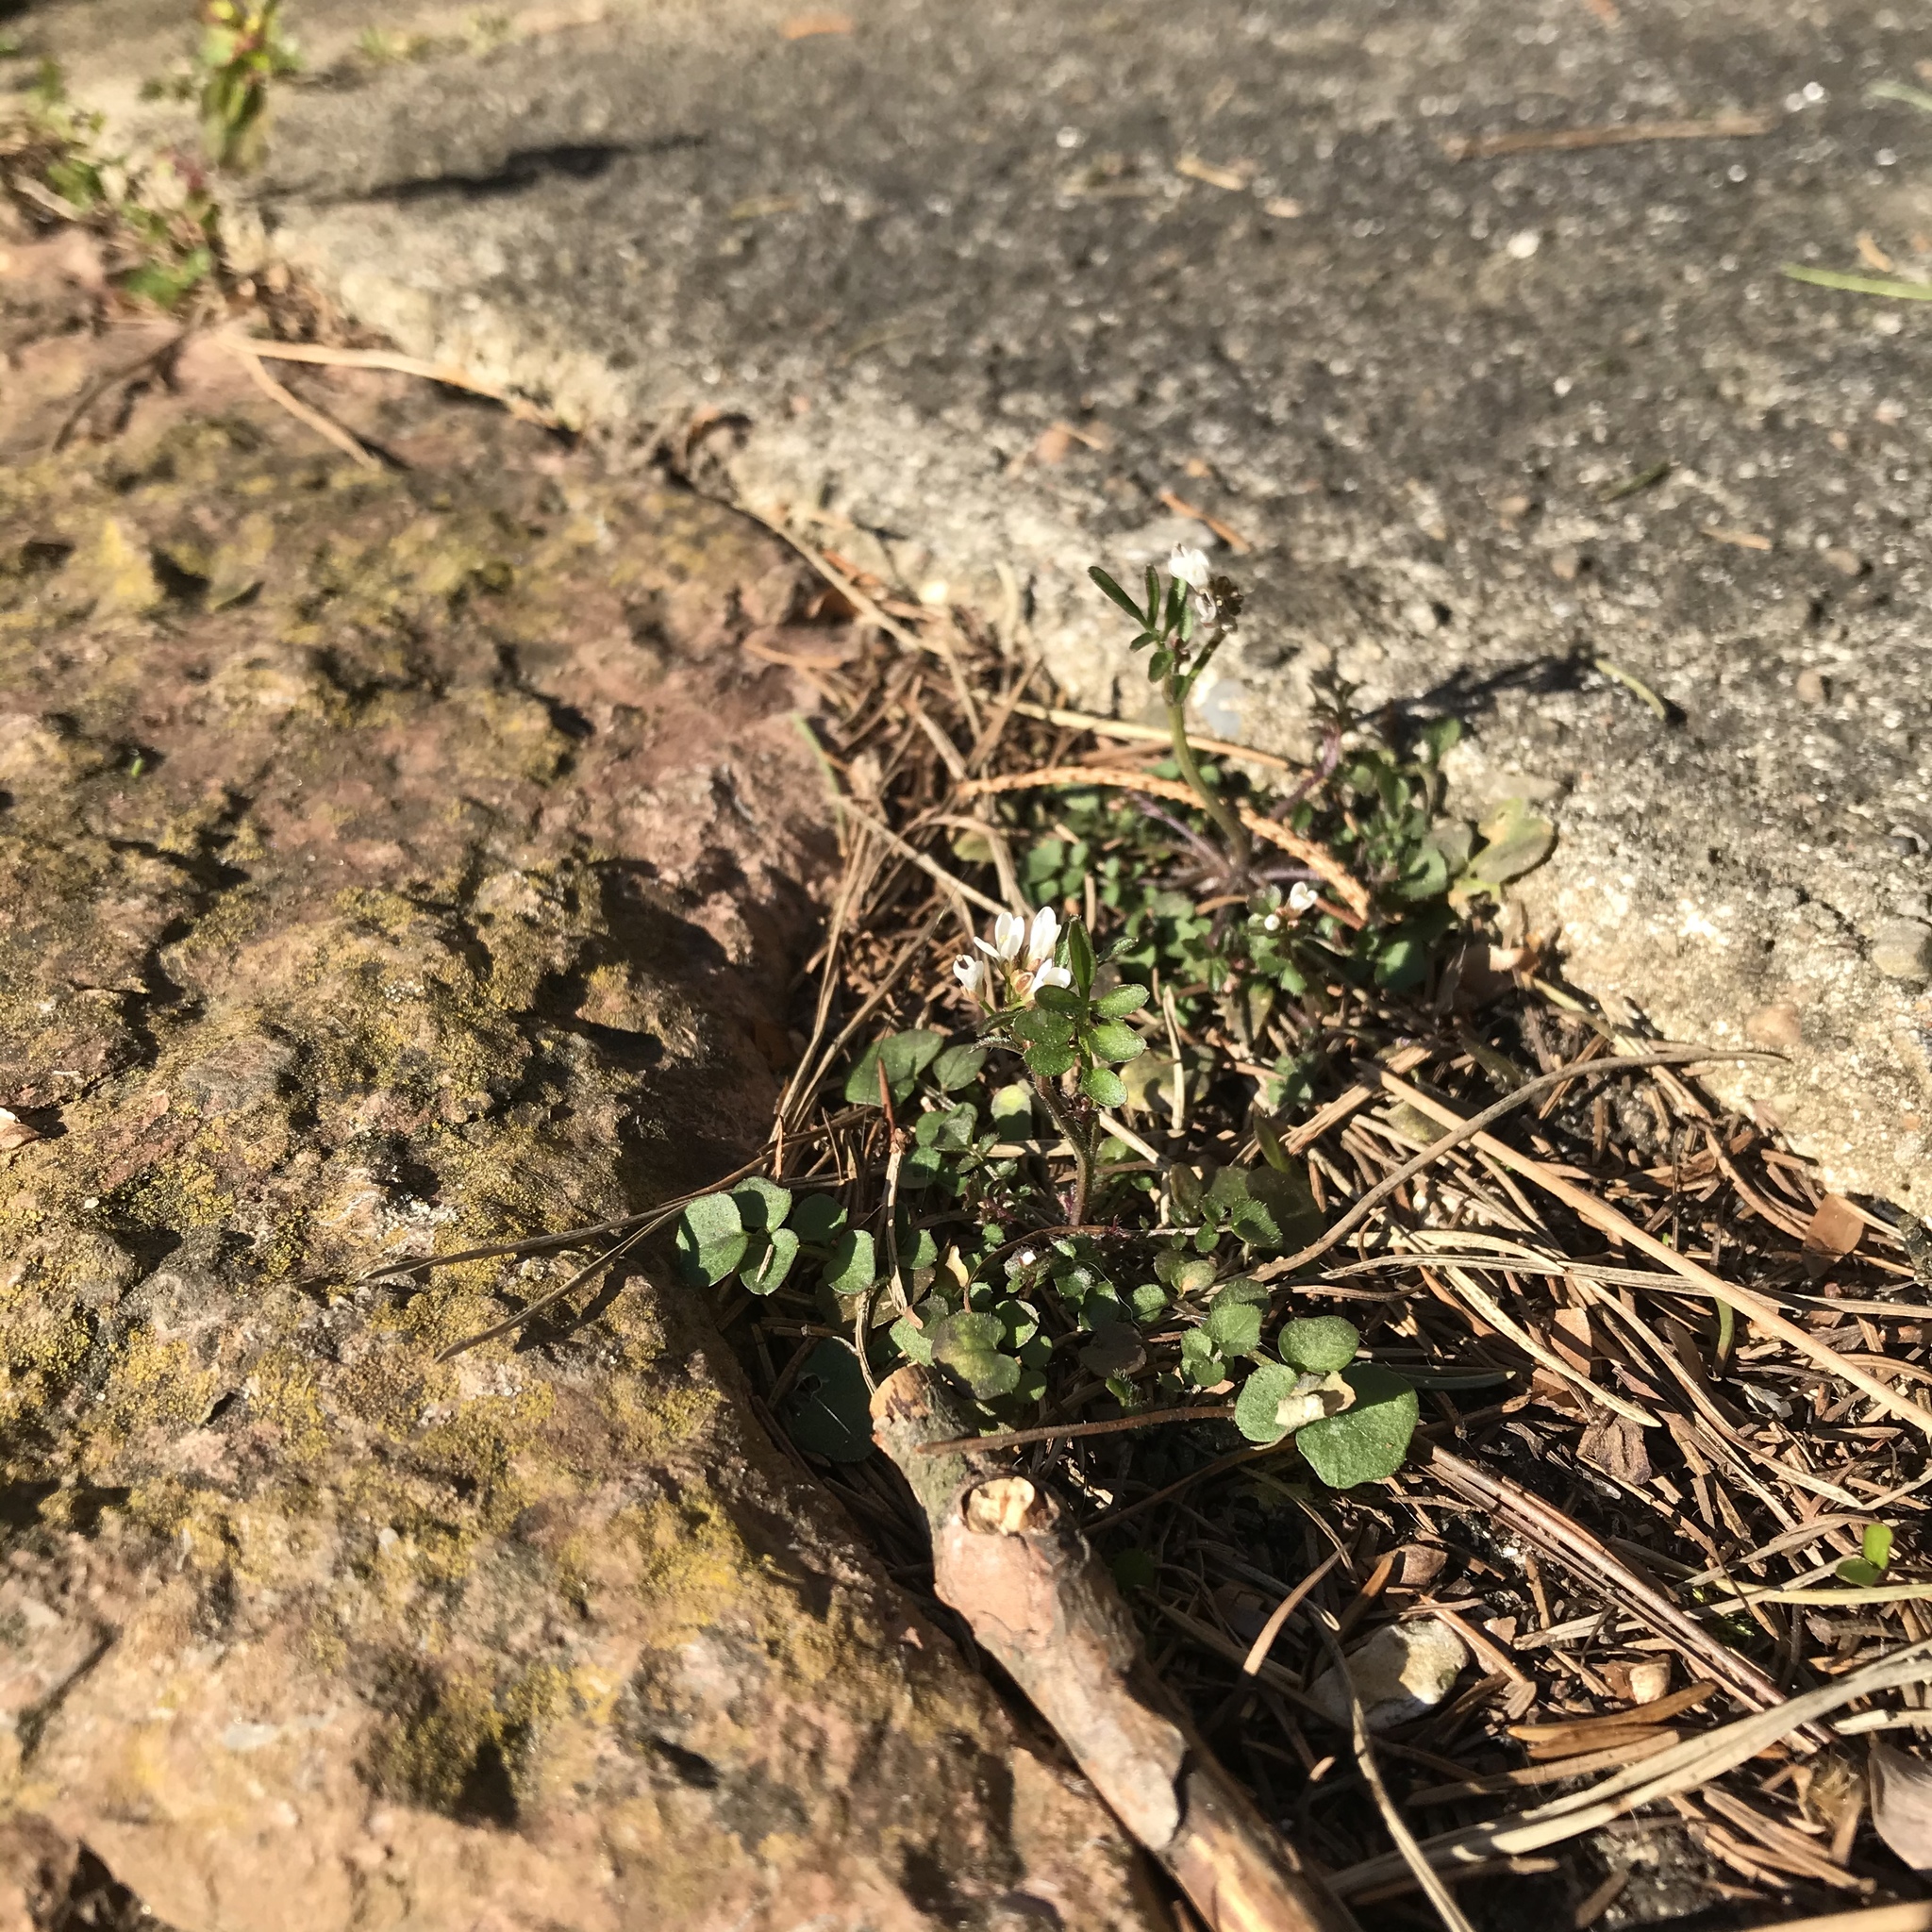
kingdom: Plantae
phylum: Tracheophyta
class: Magnoliopsida
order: Brassicales
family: Brassicaceae
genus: Cardamine
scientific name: Cardamine hirsuta
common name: Hairy bittercress
